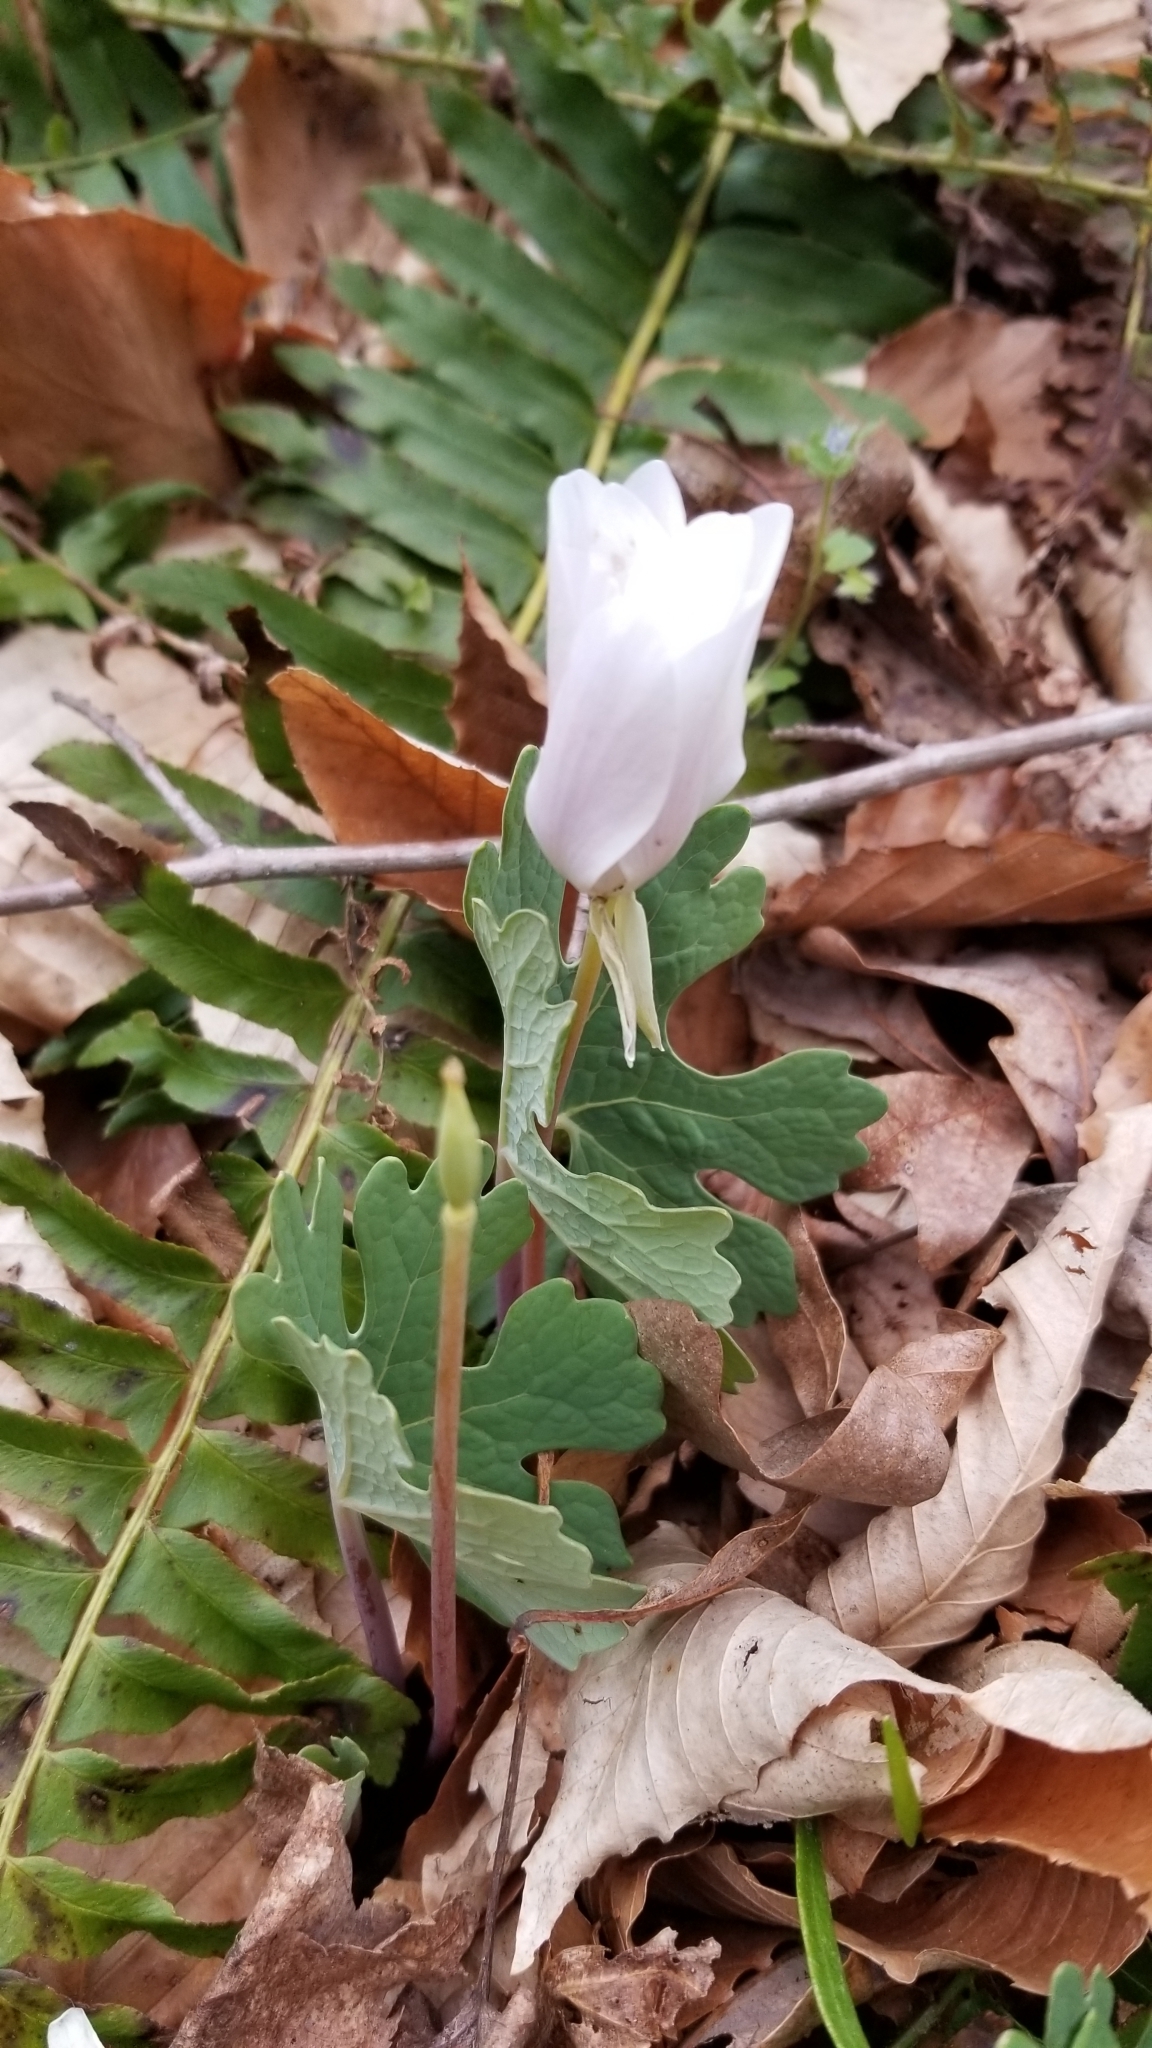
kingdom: Plantae
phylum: Tracheophyta
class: Magnoliopsida
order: Ranunculales
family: Papaveraceae
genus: Sanguinaria
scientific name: Sanguinaria canadensis
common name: Bloodroot
